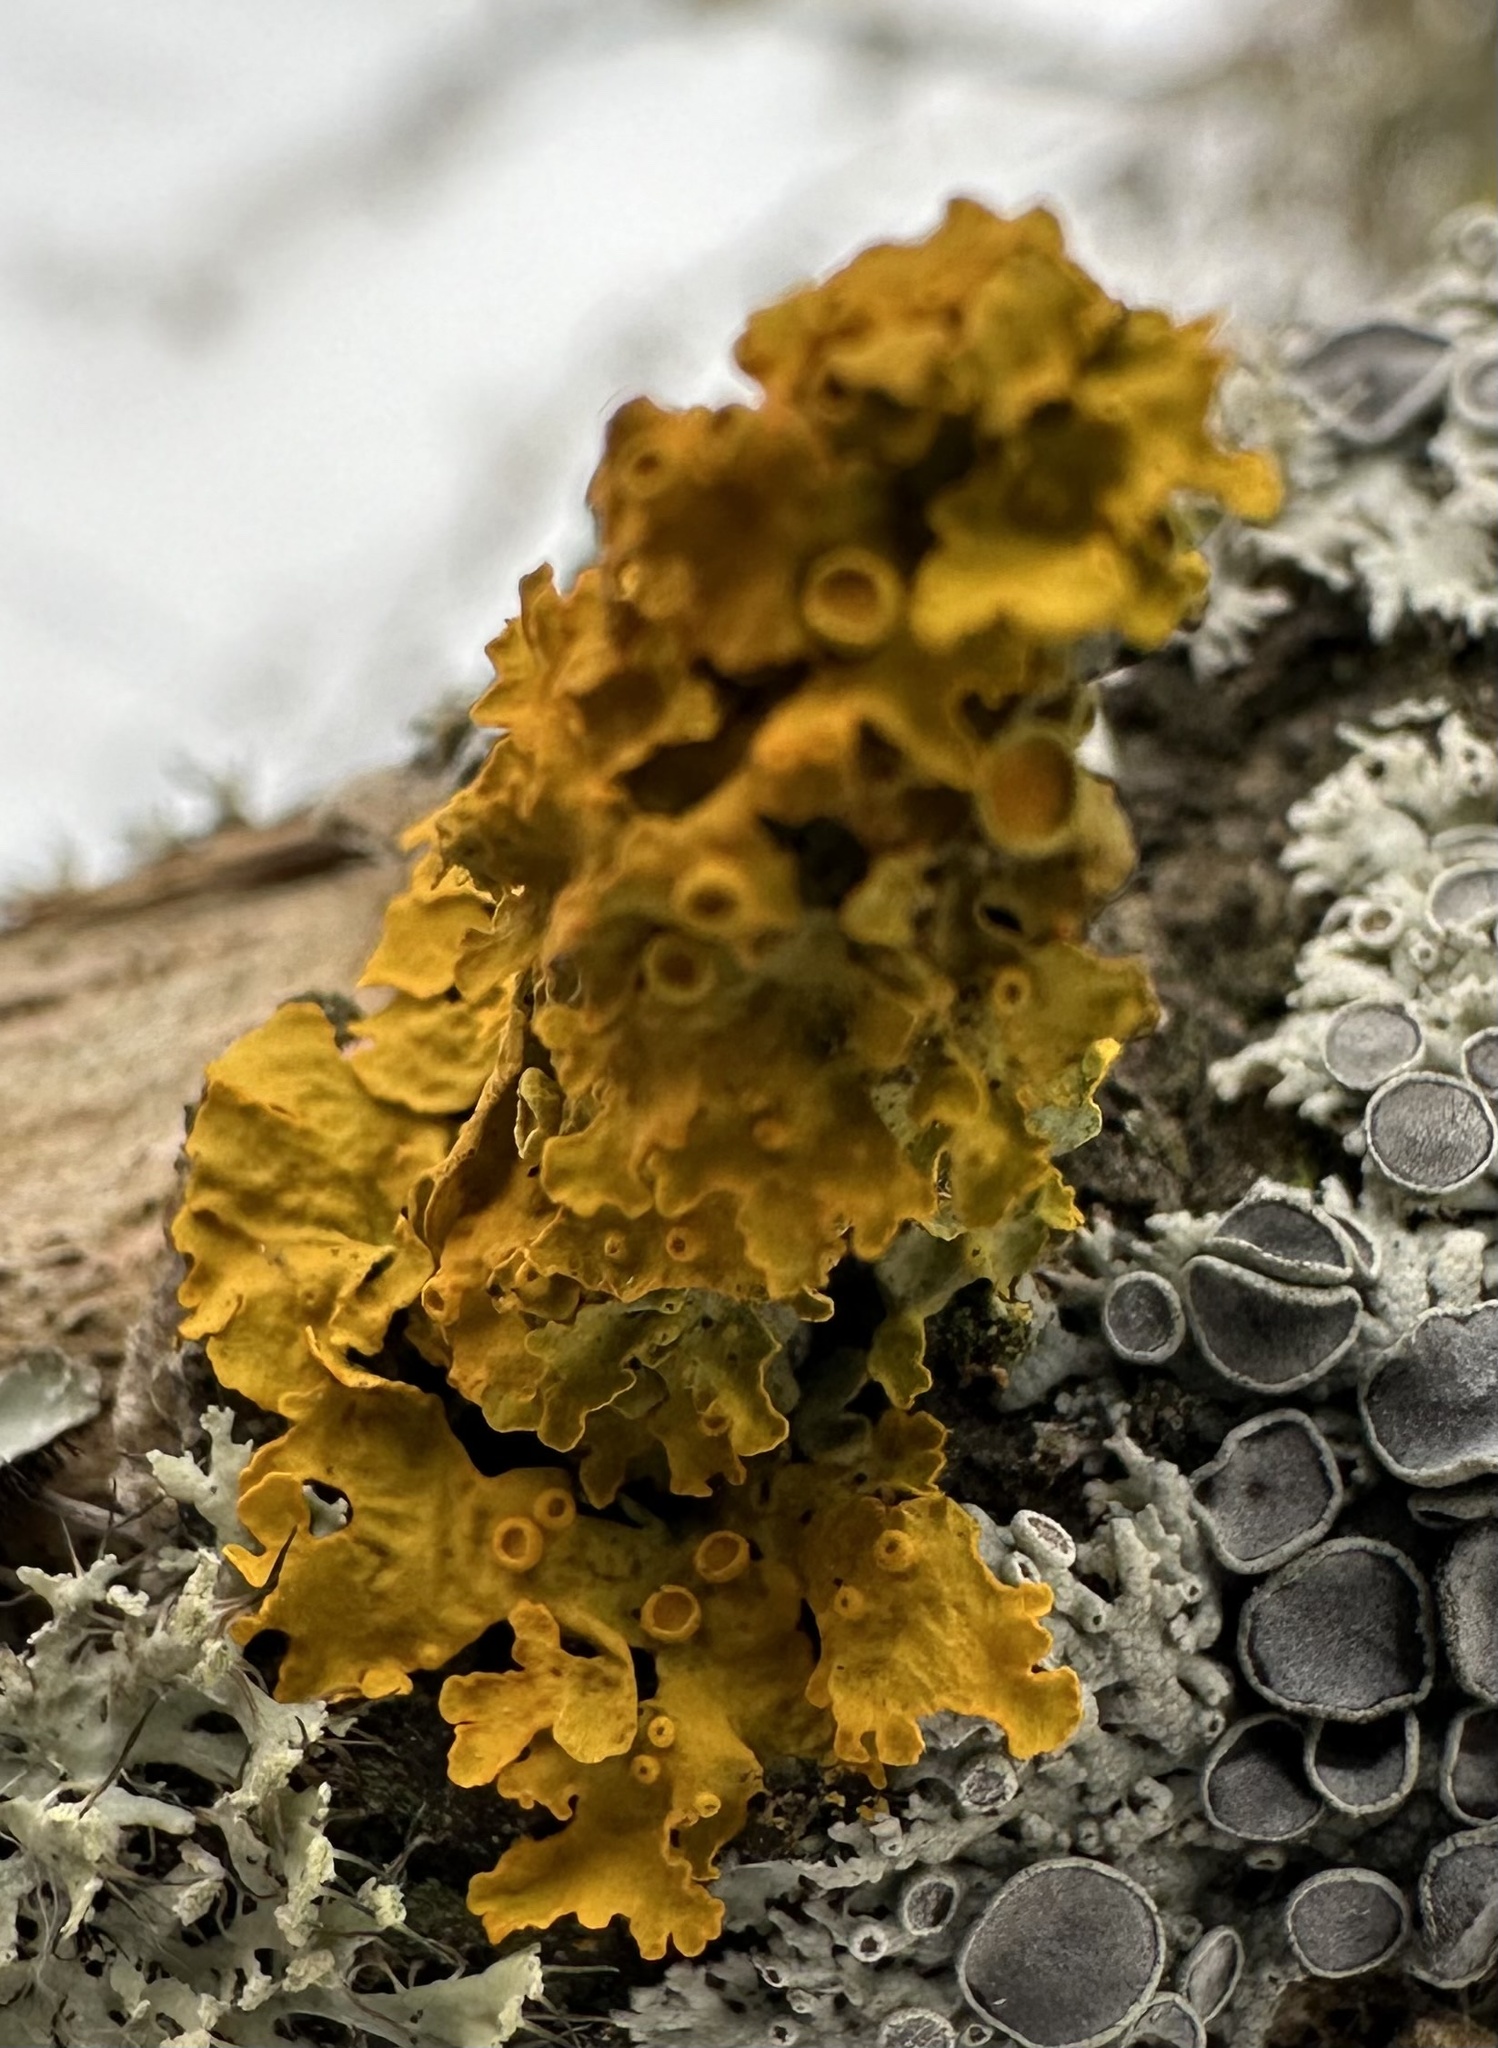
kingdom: Fungi
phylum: Ascomycota
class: Lecanoromycetes
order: Teloschistales
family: Teloschistaceae
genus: Xanthoria
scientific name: Xanthoria parietina
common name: Common orange lichen
